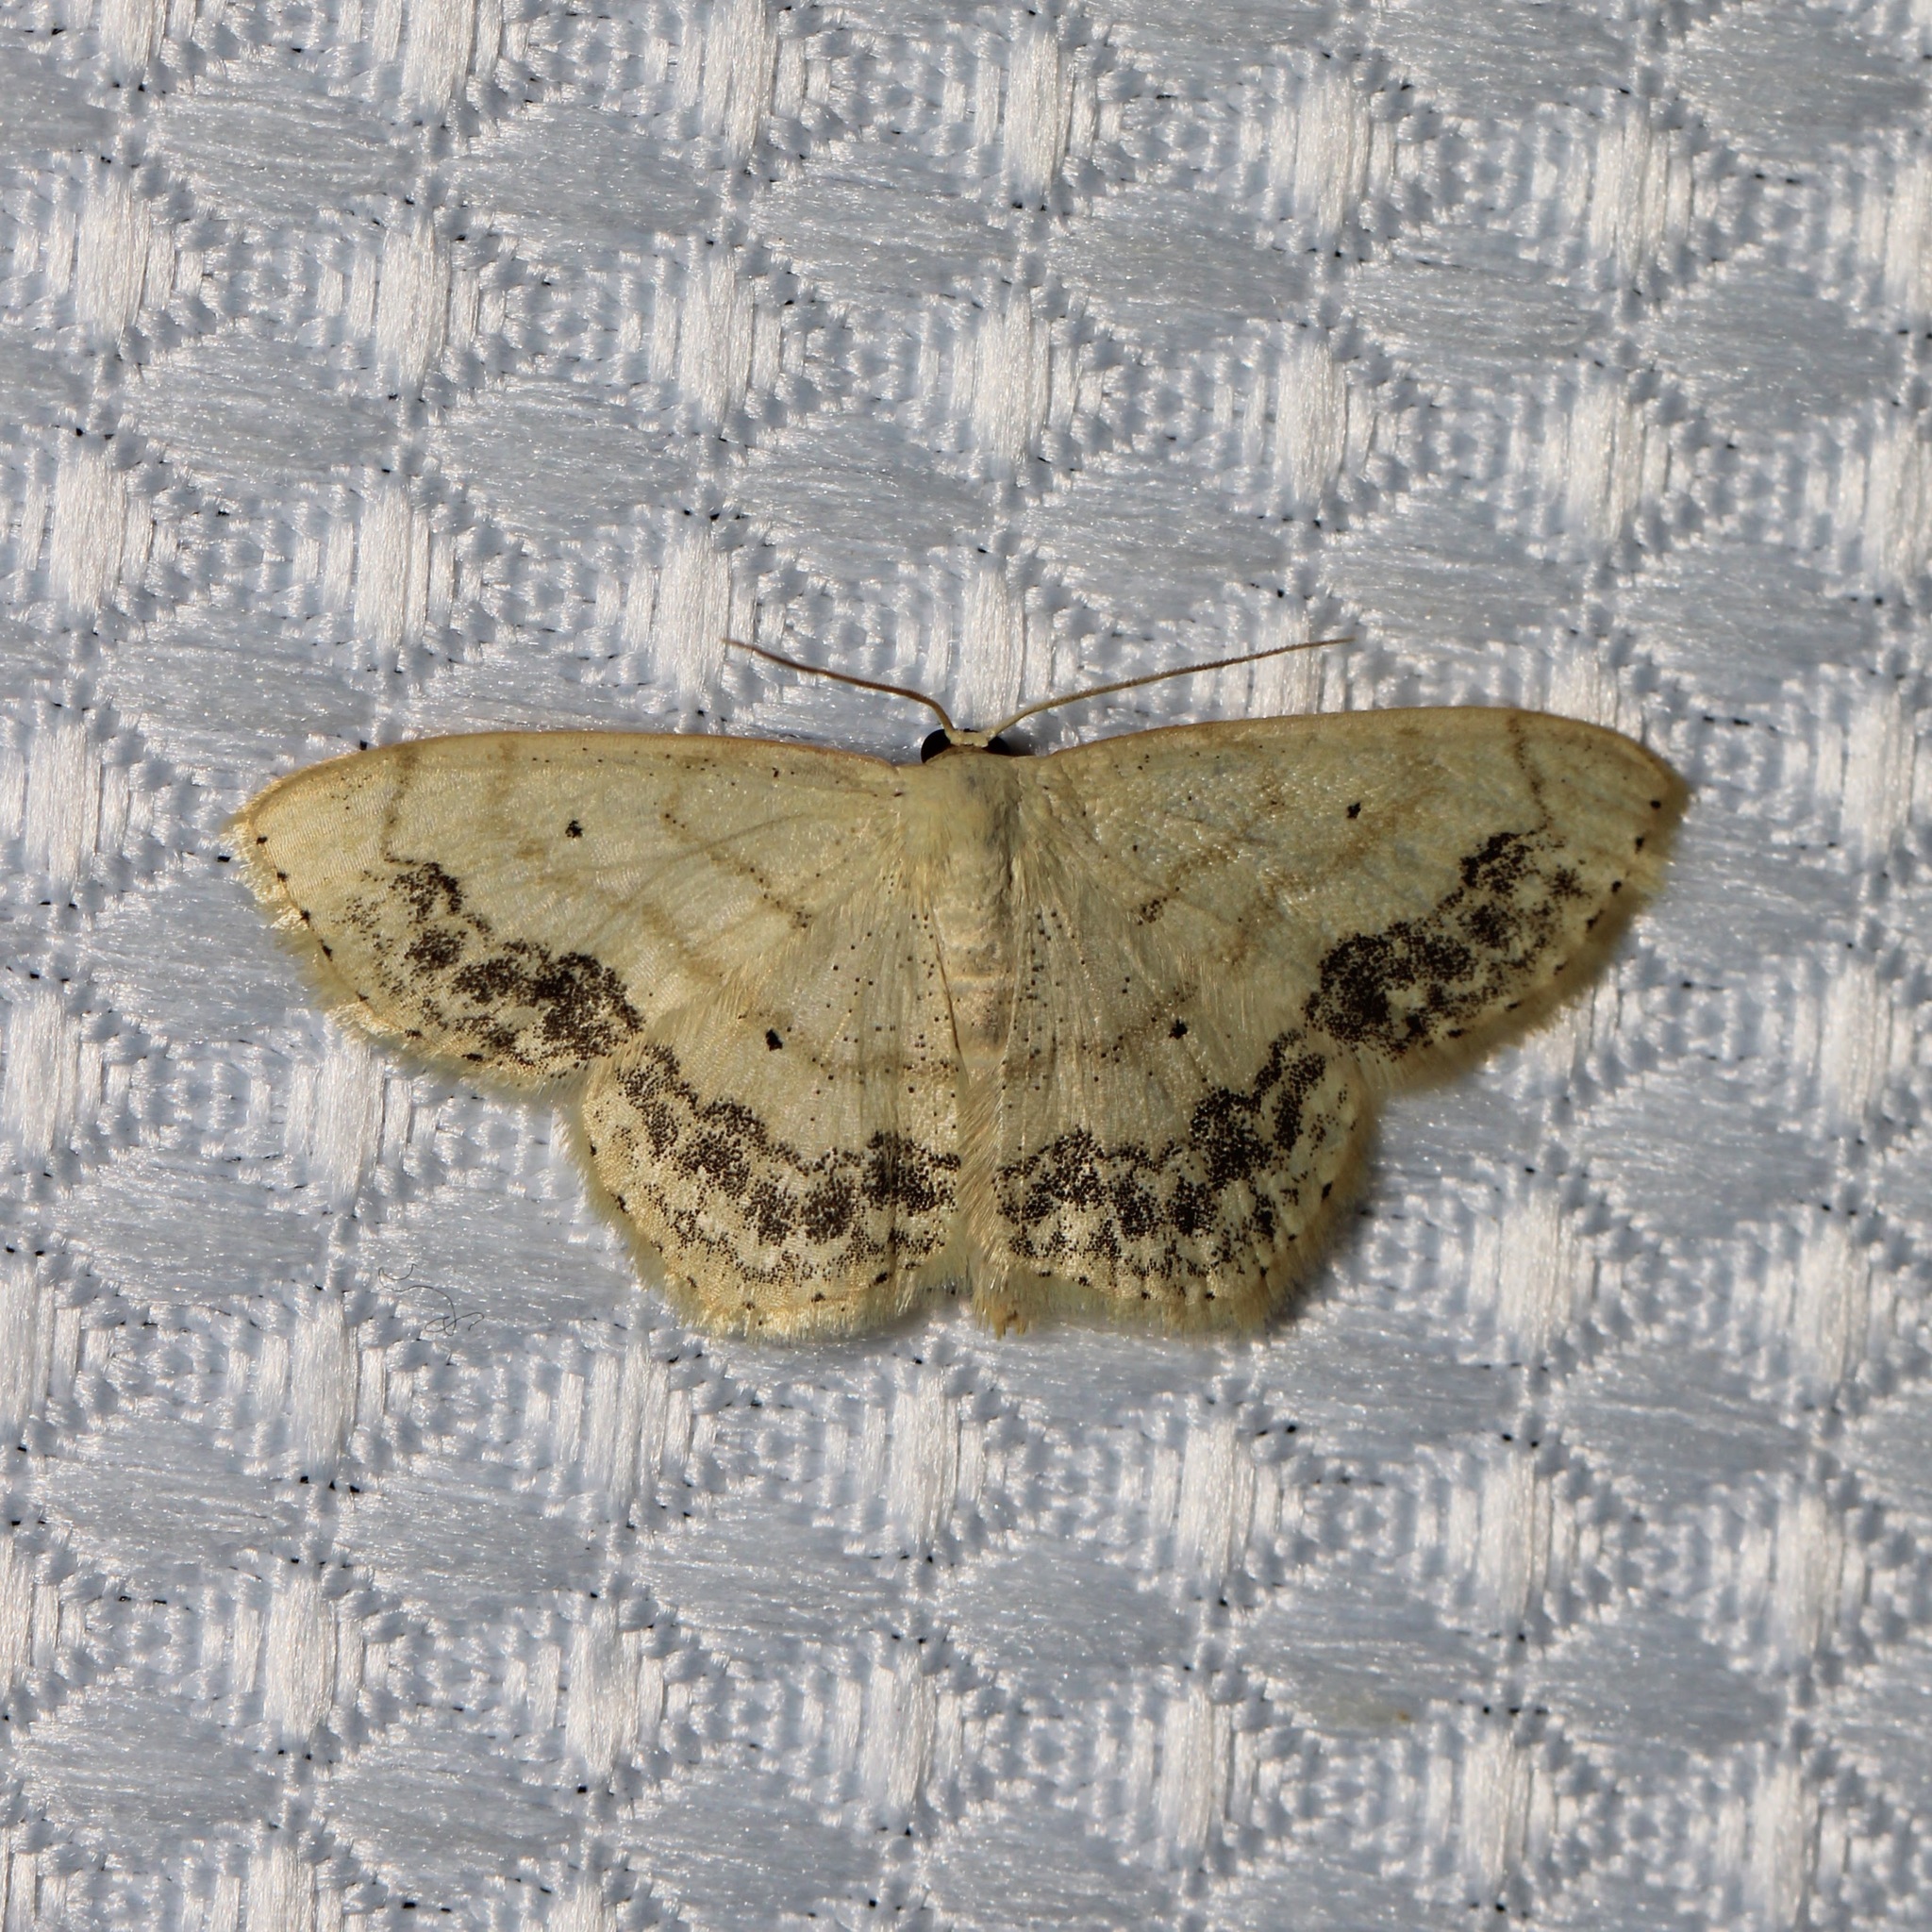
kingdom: Animalia
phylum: Arthropoda
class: Insecta
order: Lepidoptera
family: Geometridae
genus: Scopula
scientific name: Scopula limboundata
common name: Large lace border
